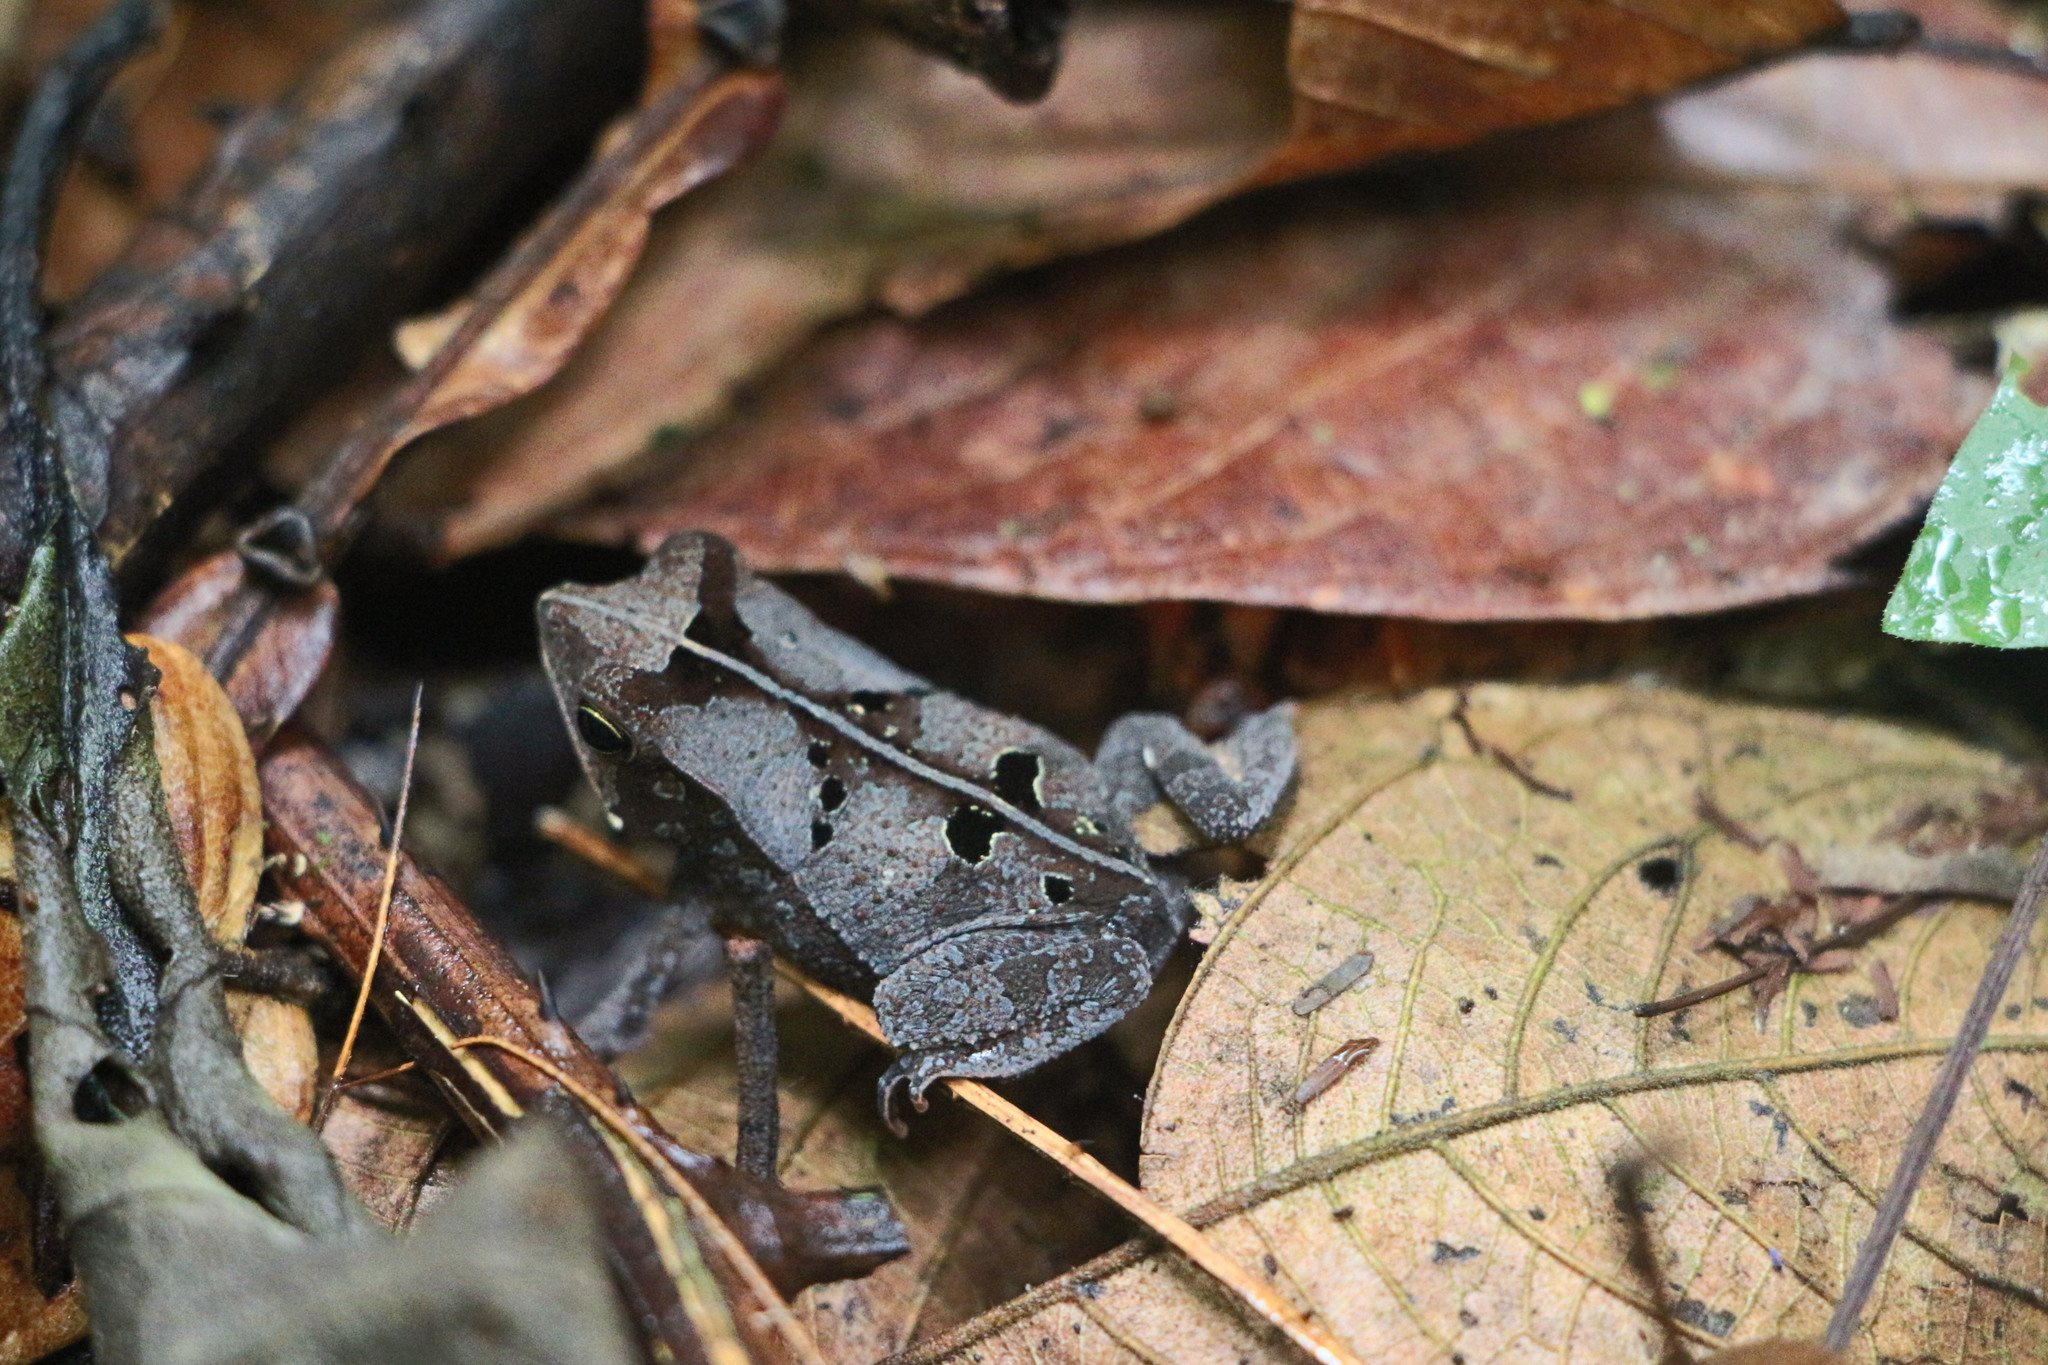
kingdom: Animalia
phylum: Chordata
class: Amphibia
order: Anura
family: Bufonidae
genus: Rhinella
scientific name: Rhinella margaritifera
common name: Mitred toad
